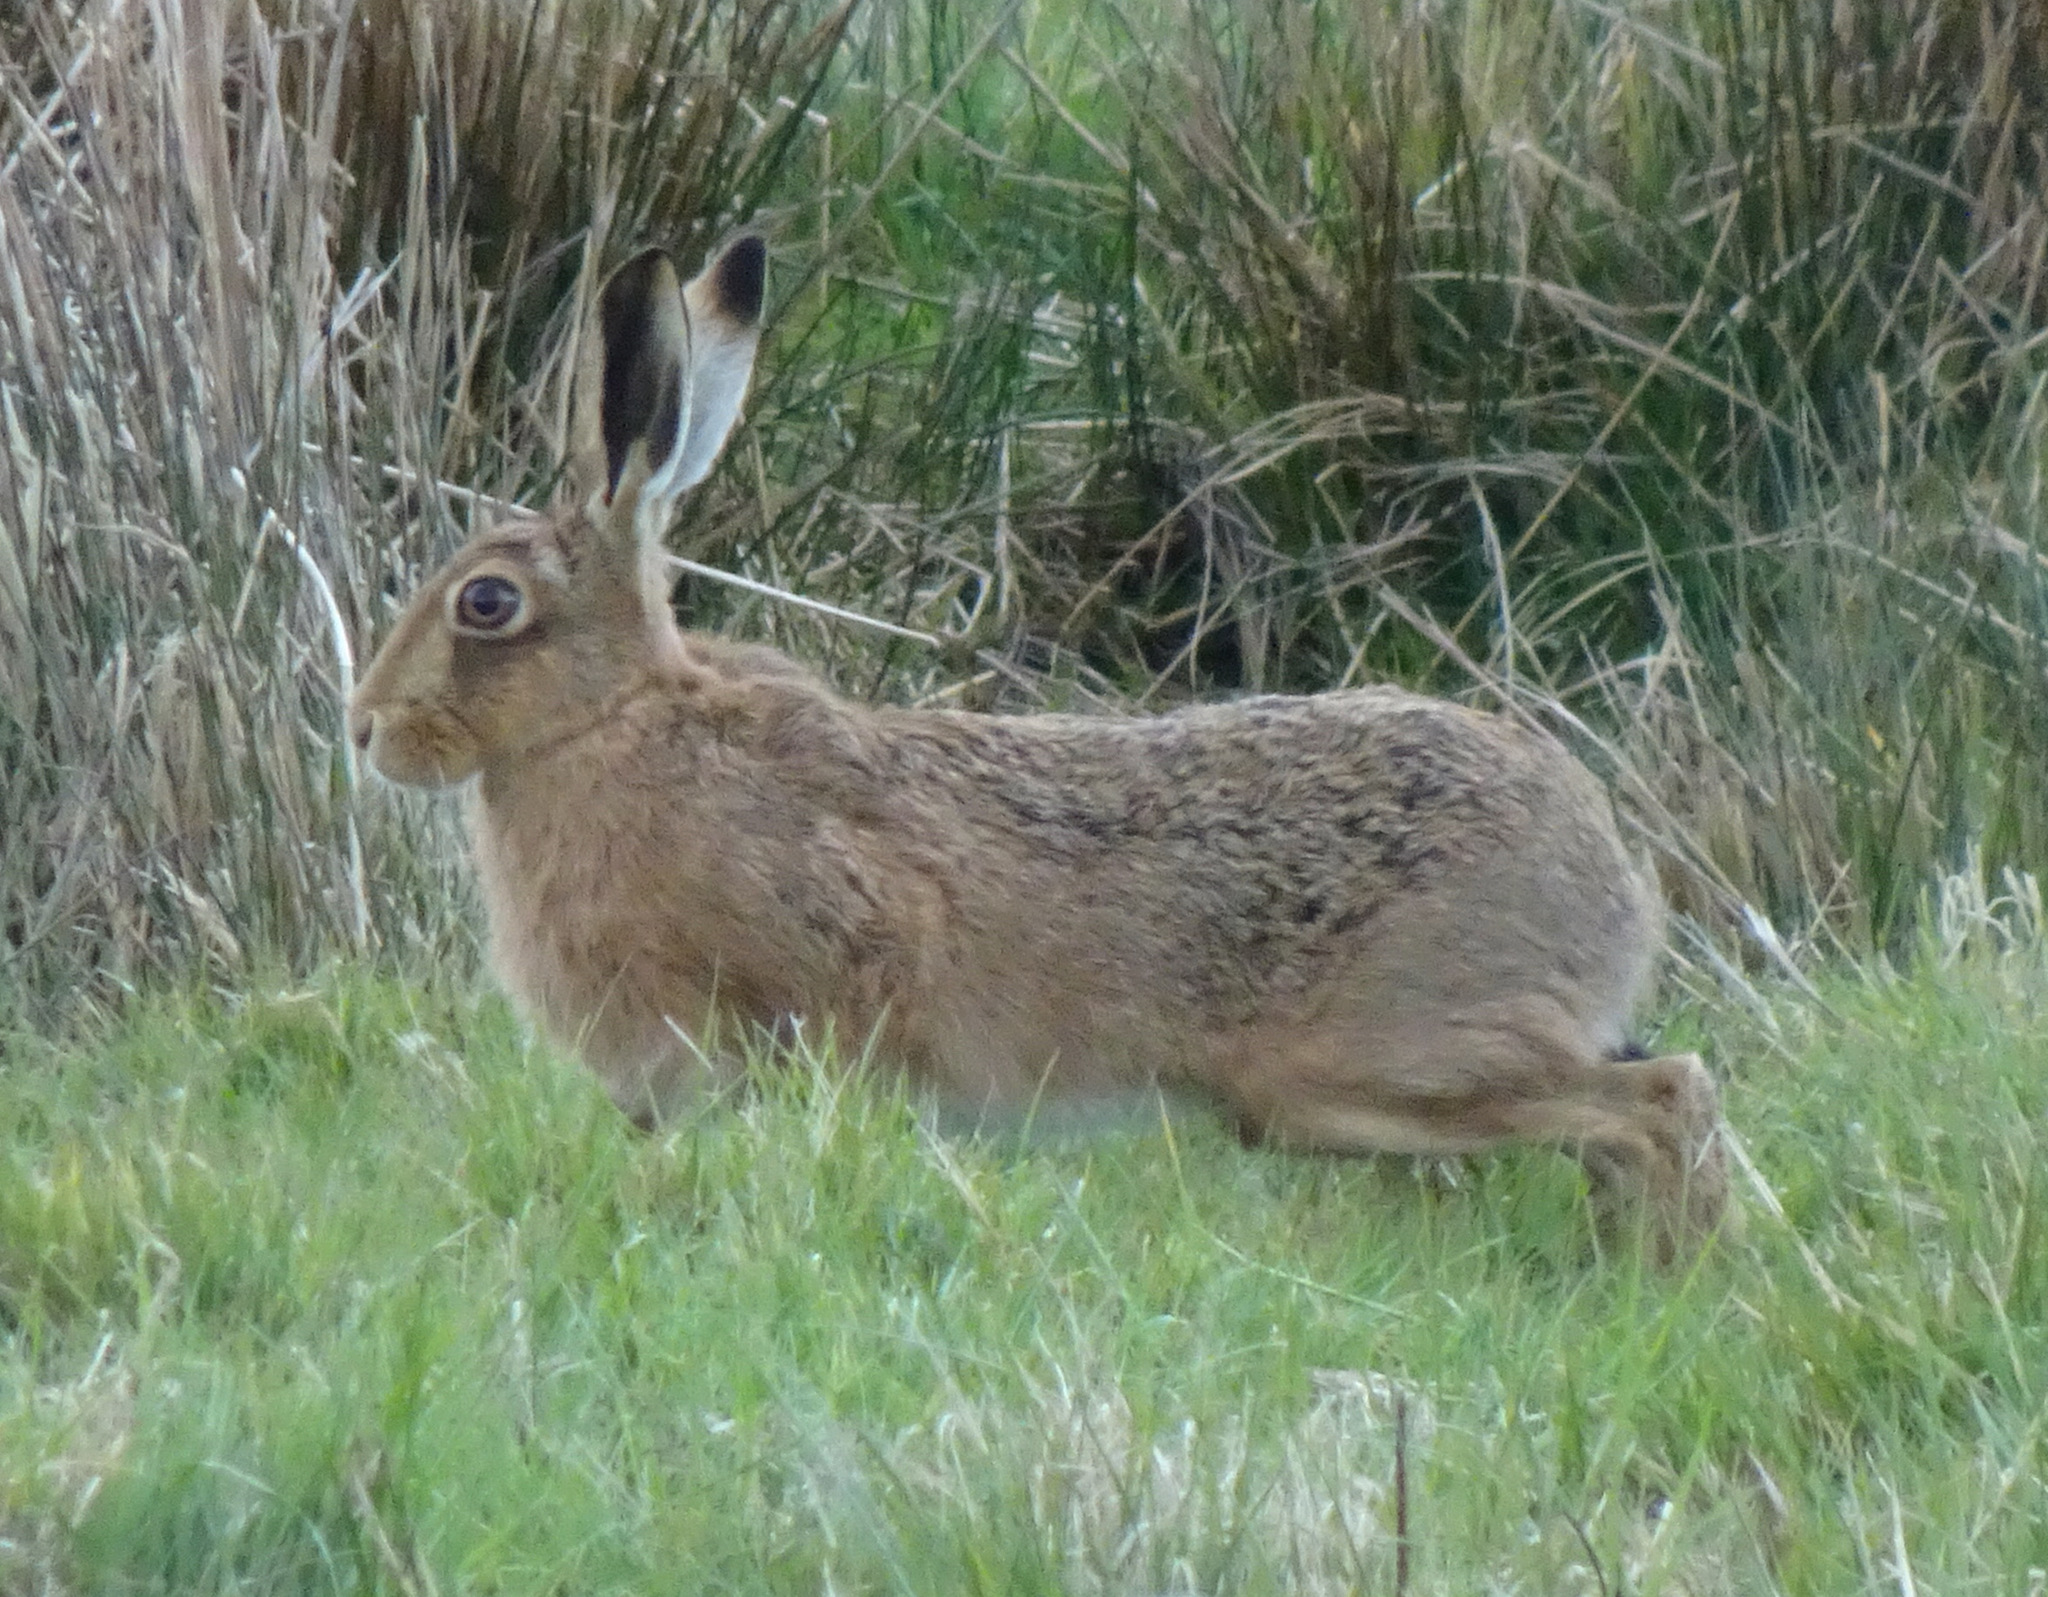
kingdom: Animalia
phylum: Chordata
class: Mammalia
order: Lagomorpha
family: Leporidae
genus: Lepus
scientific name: Lepus europaeus
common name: European hare
